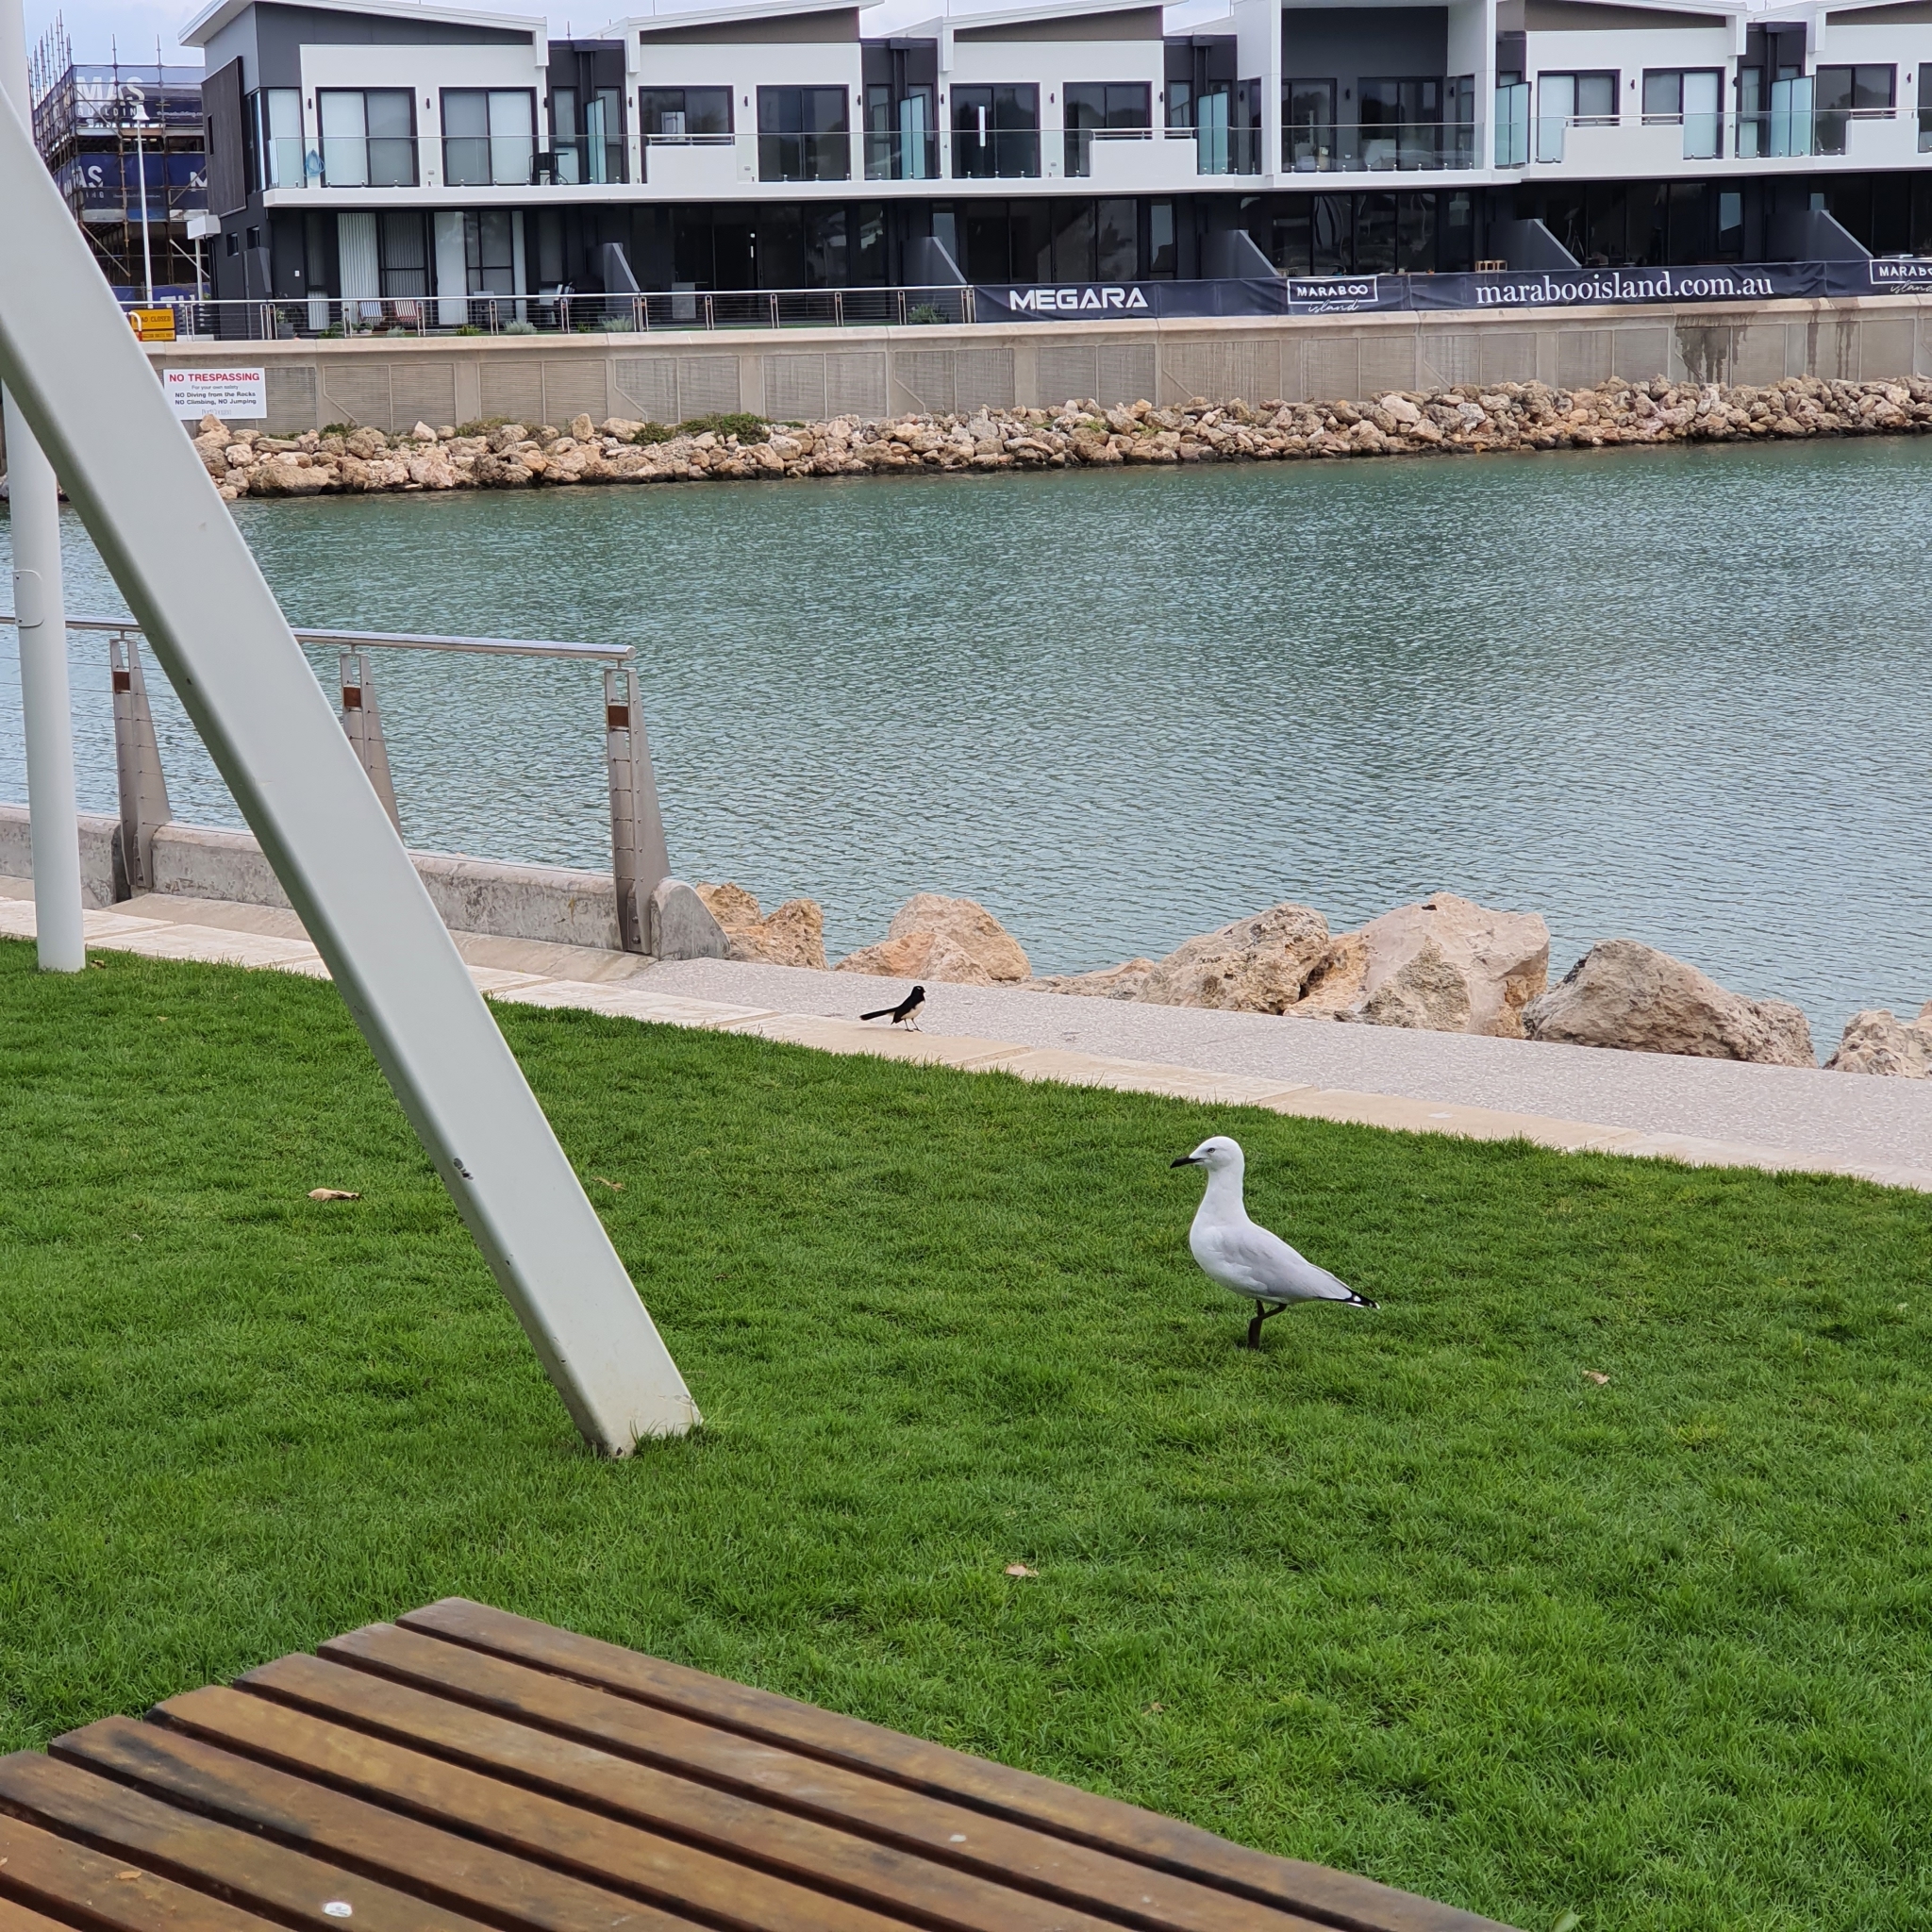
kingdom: Animalia
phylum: Chordata
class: Aves
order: Passeriformes
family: Rhipiduridae
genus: Rhipidura
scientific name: Rhipidura leucophrys
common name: Willie wagtail
